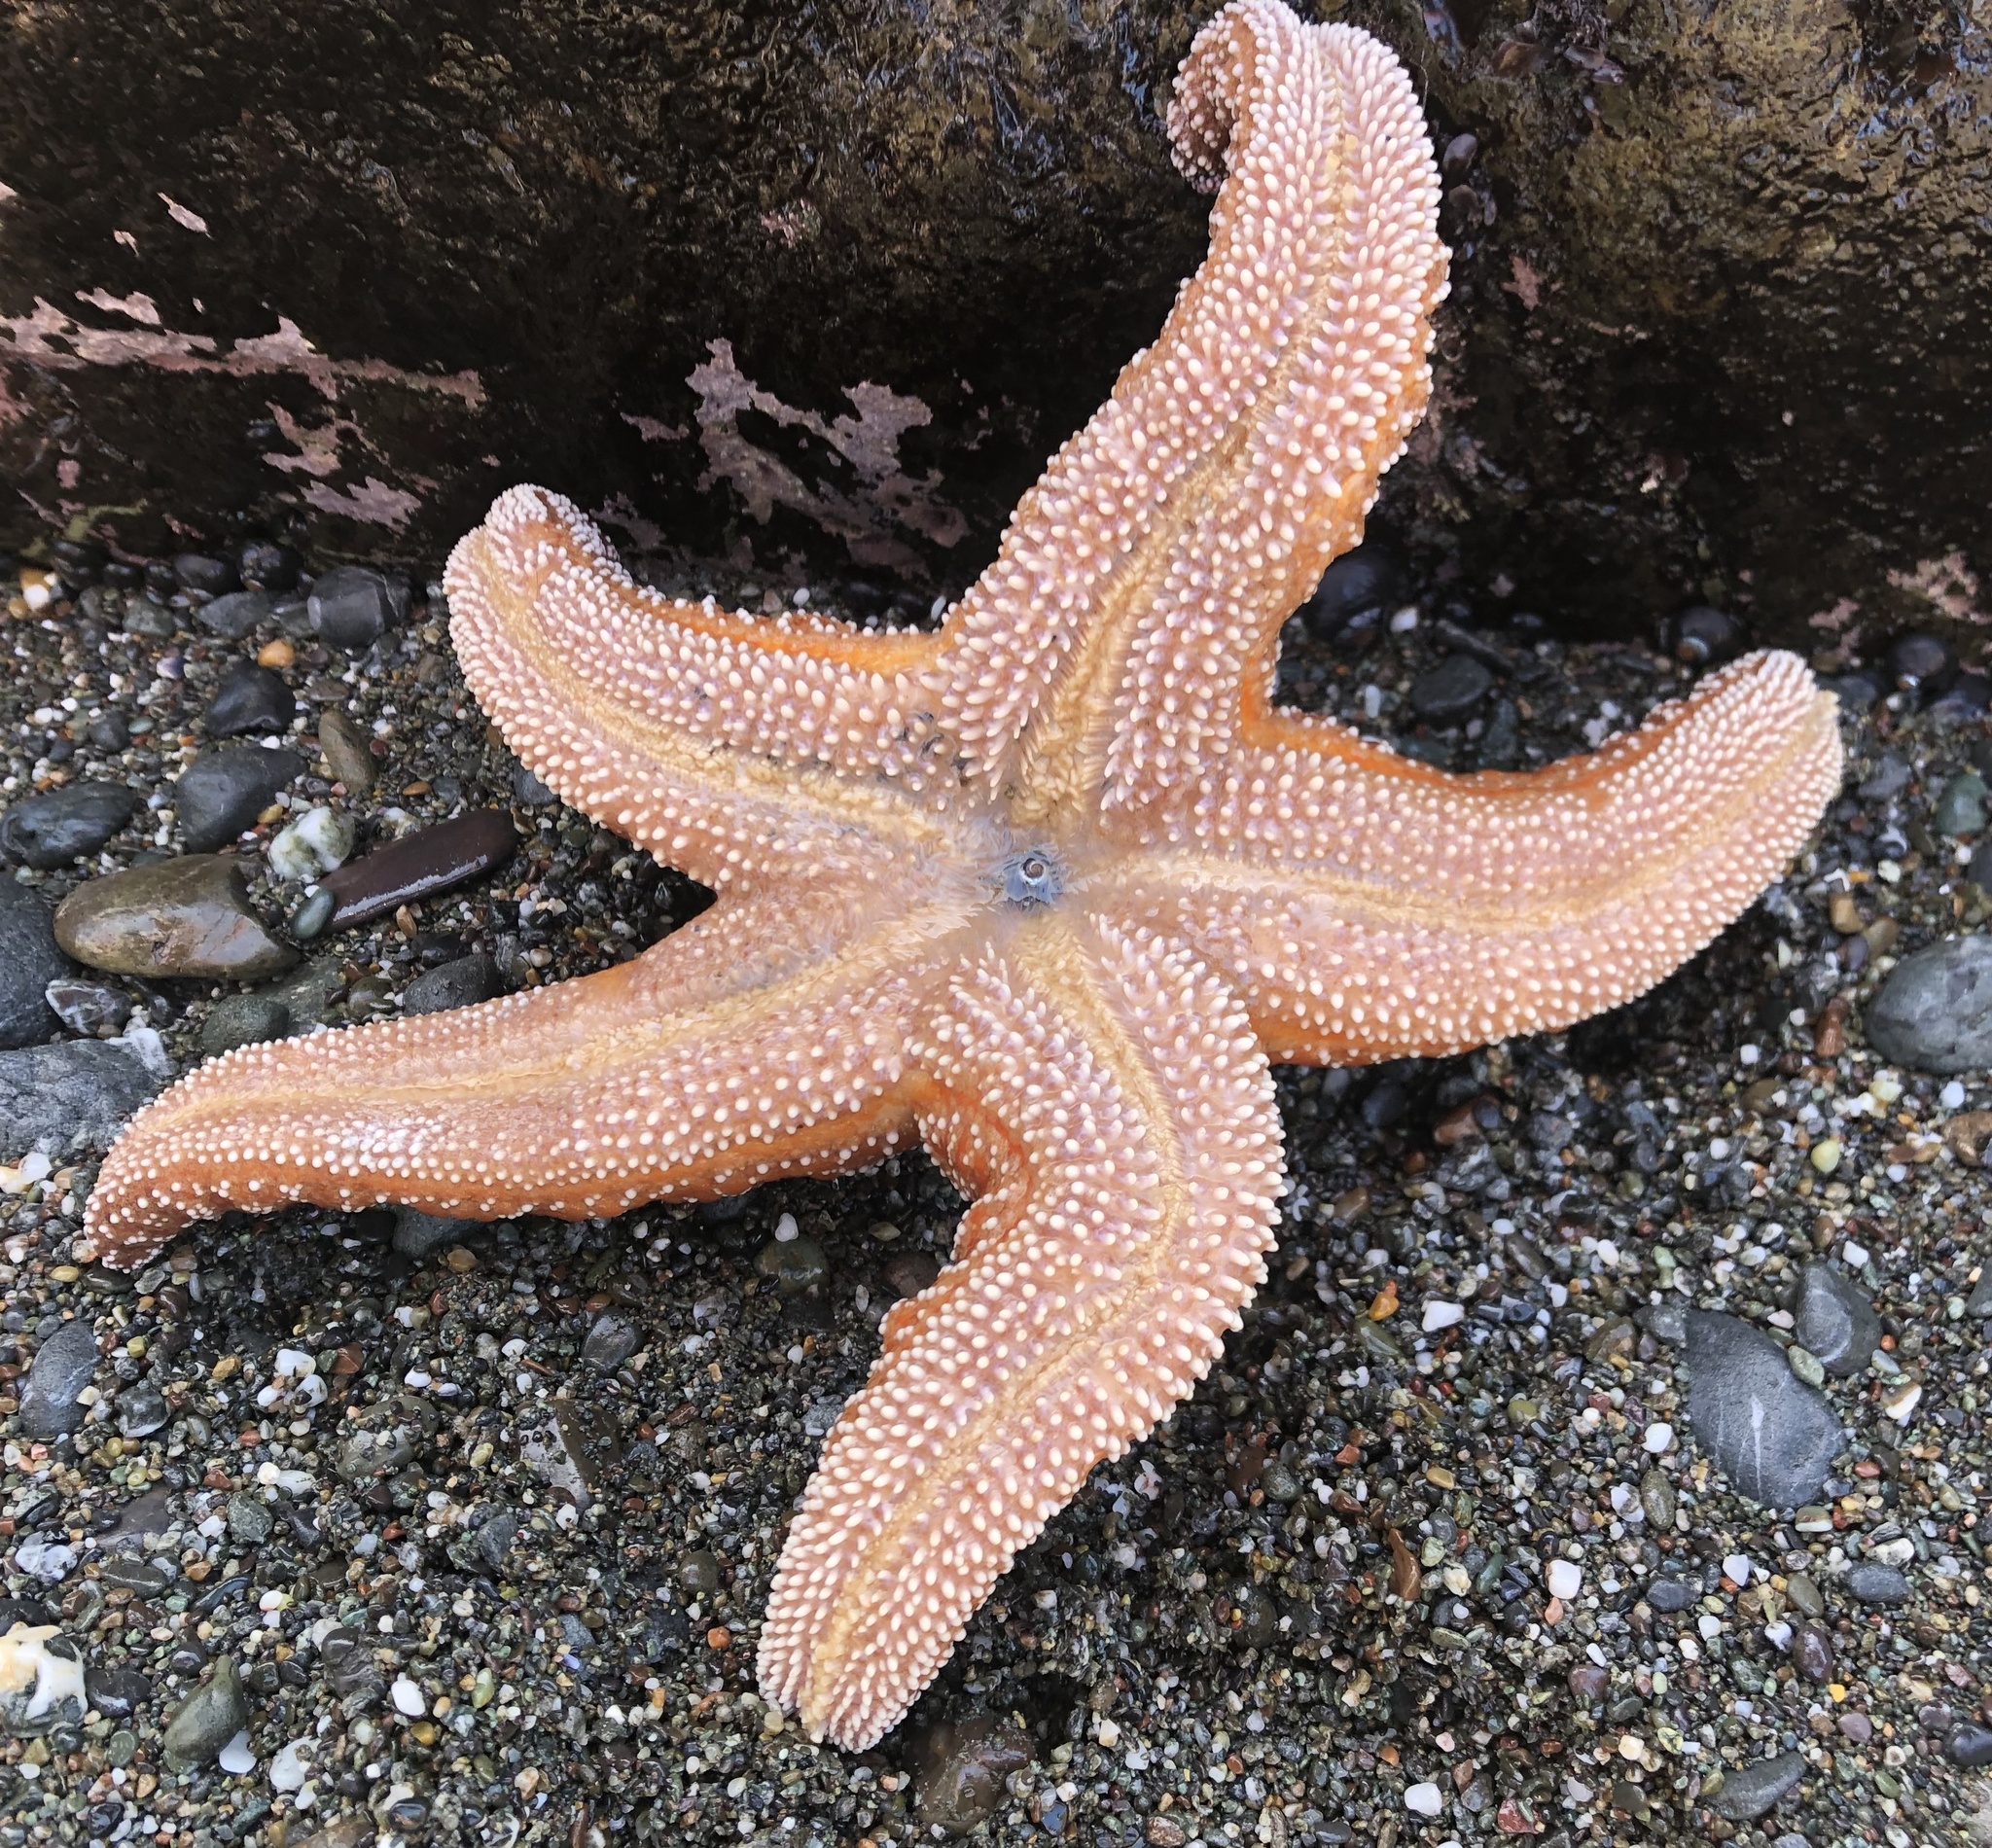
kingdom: Animalia
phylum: Echinodermata
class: Asteroidea
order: Forcipulatida
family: Asteriidae
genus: Pisaster
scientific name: Pisaster ochraceus
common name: Ochre stars
